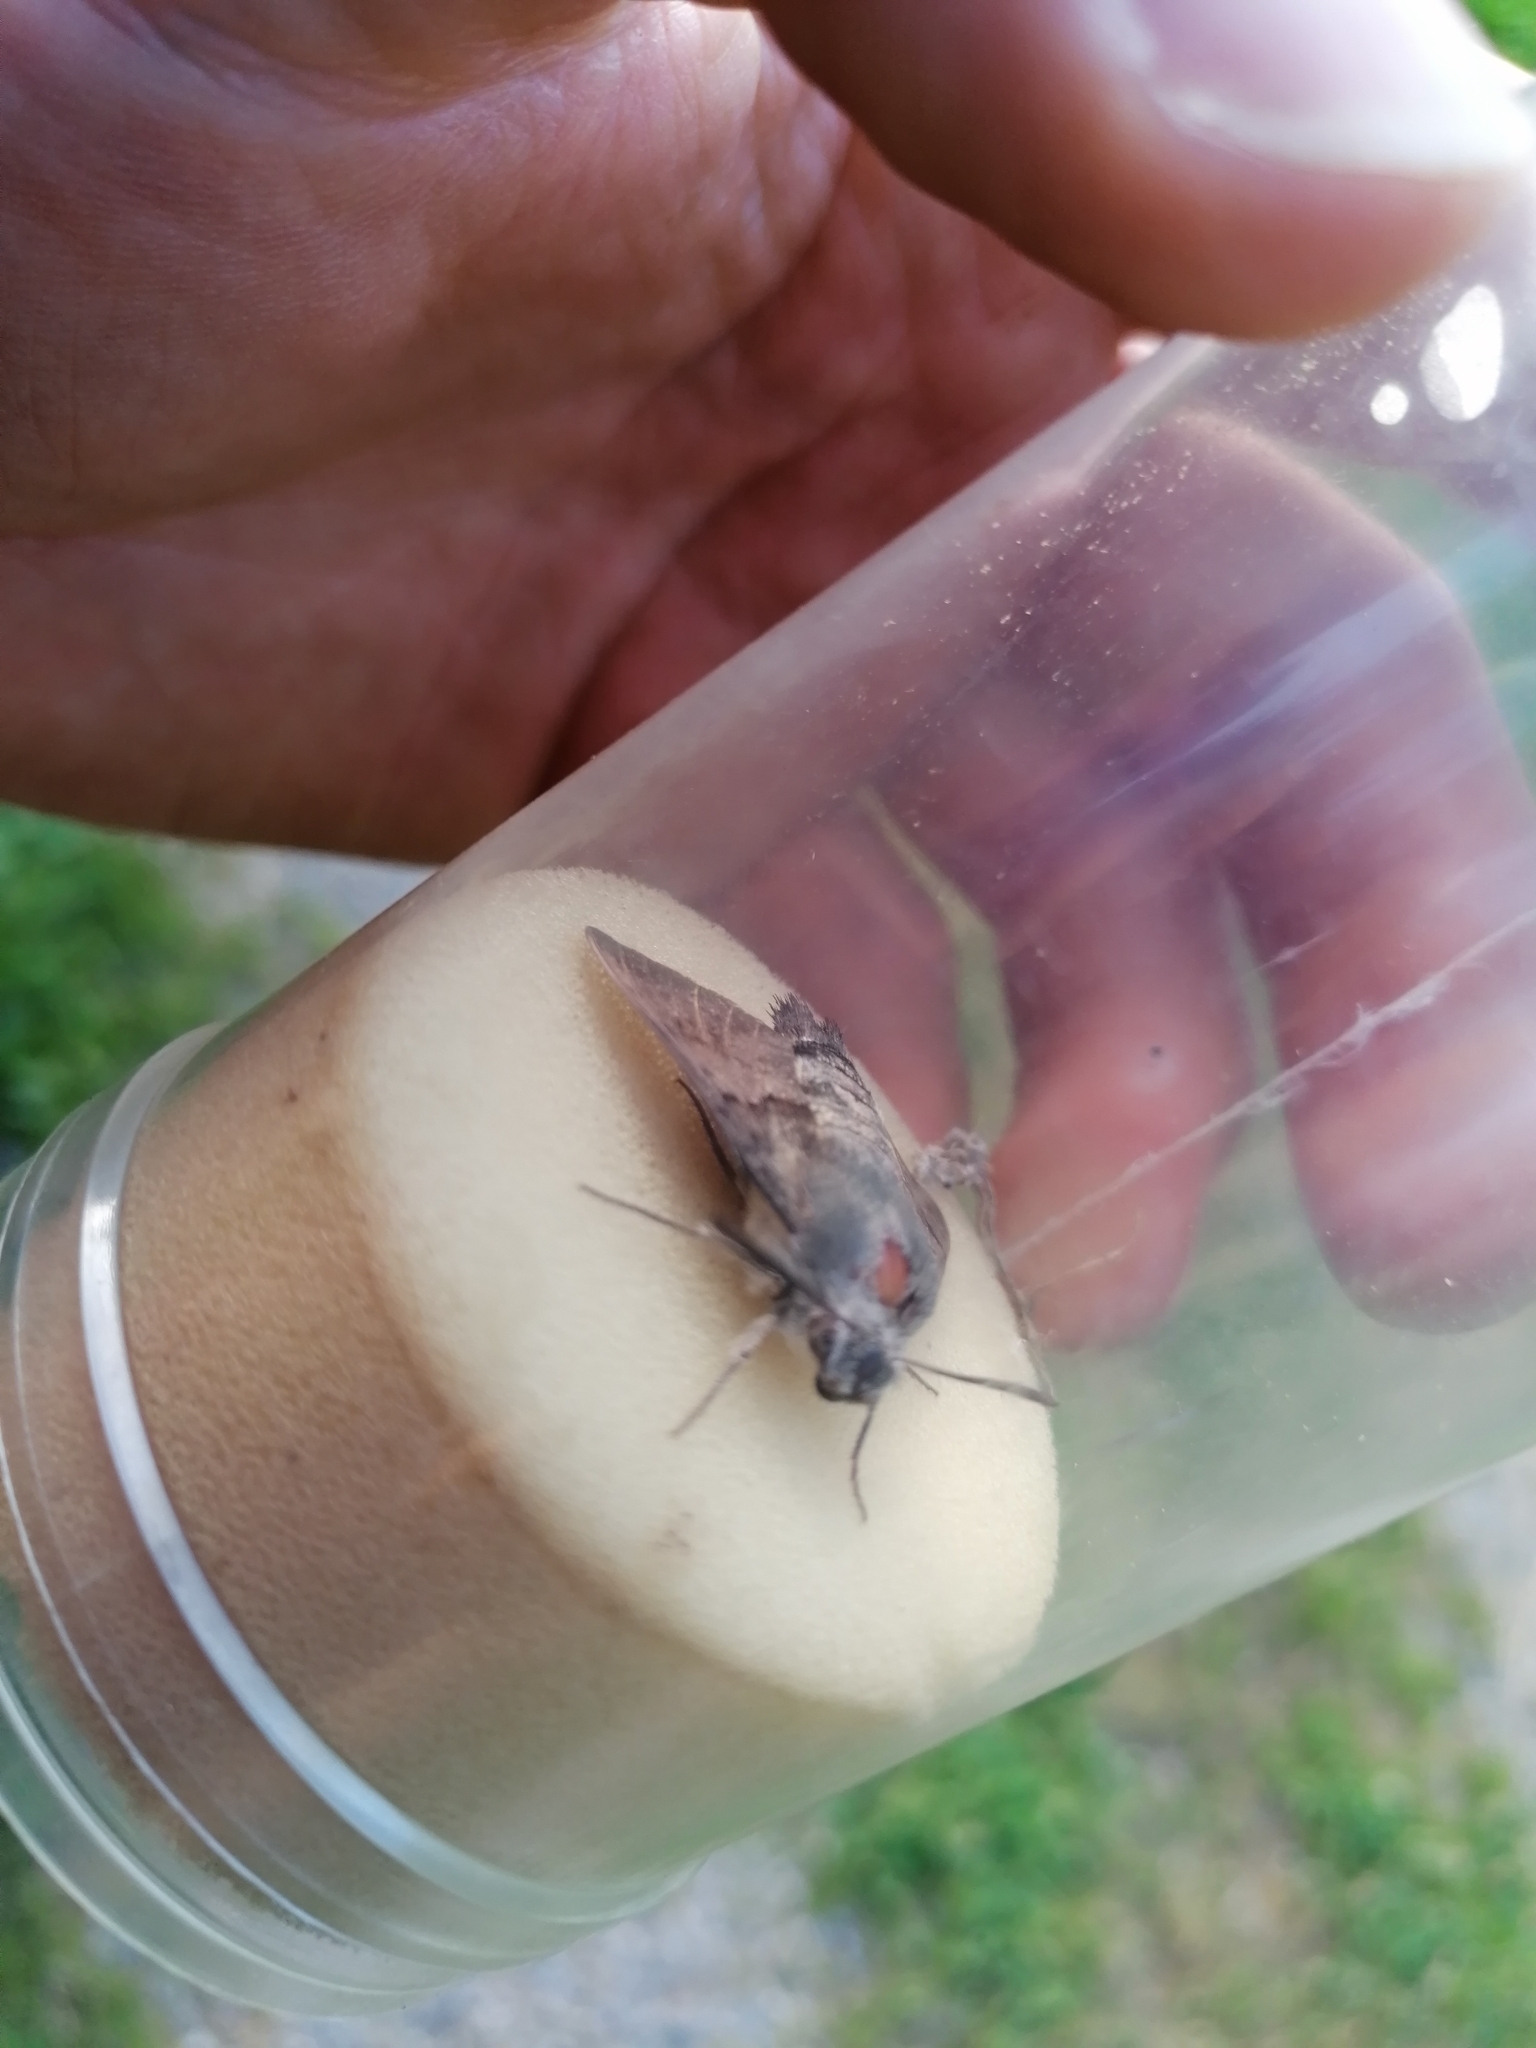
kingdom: Animalia
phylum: Arthropoda
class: Insecta
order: Lepidoptera
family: Sphingidae
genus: Macroglossum
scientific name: Macroglossum stellatarum
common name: Humming-bird hawk-moth
